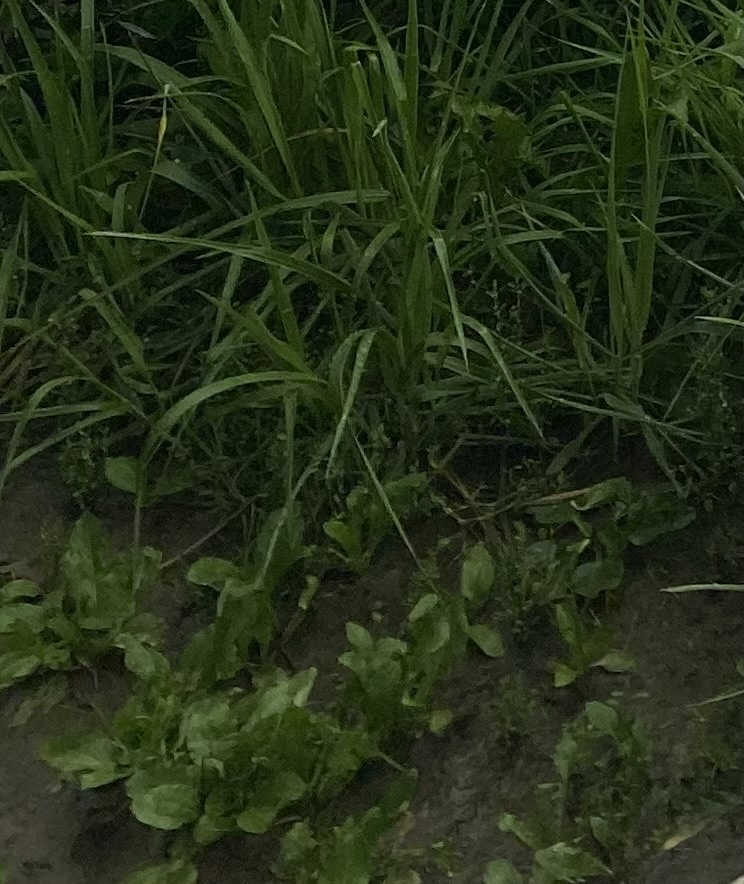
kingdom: Plantae
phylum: Tracheophyta
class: Magnoliopsida
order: Lamiales
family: Plantaginaceae
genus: Plantago
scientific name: Plantago major
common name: Common plantain
